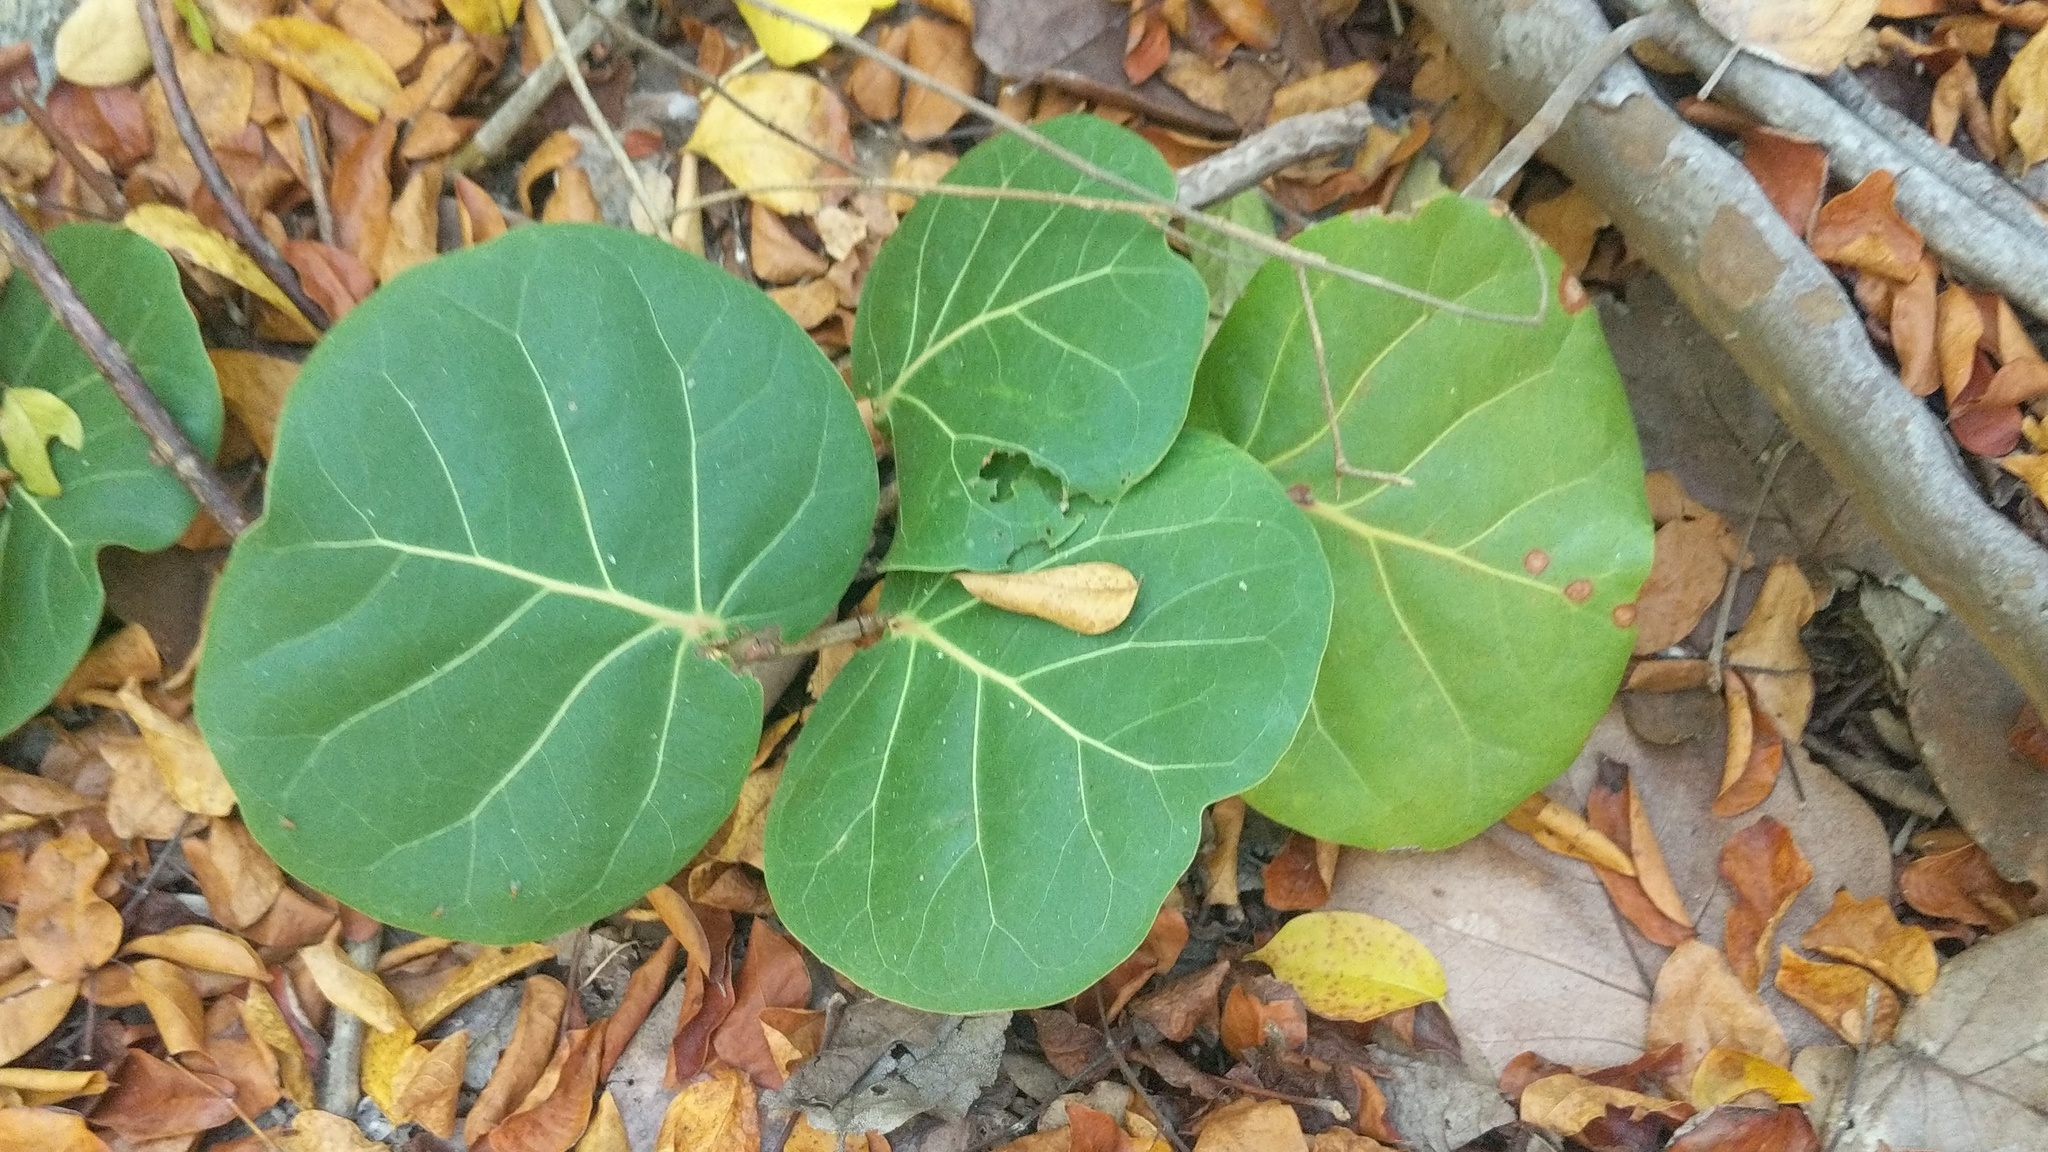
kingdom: Plantae
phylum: Tracheophyta
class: Magnoliopsida
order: Caryophyllales
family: Polygonaceae
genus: Coccoloba
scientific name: Coccoloba uvifera
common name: Seagrape
